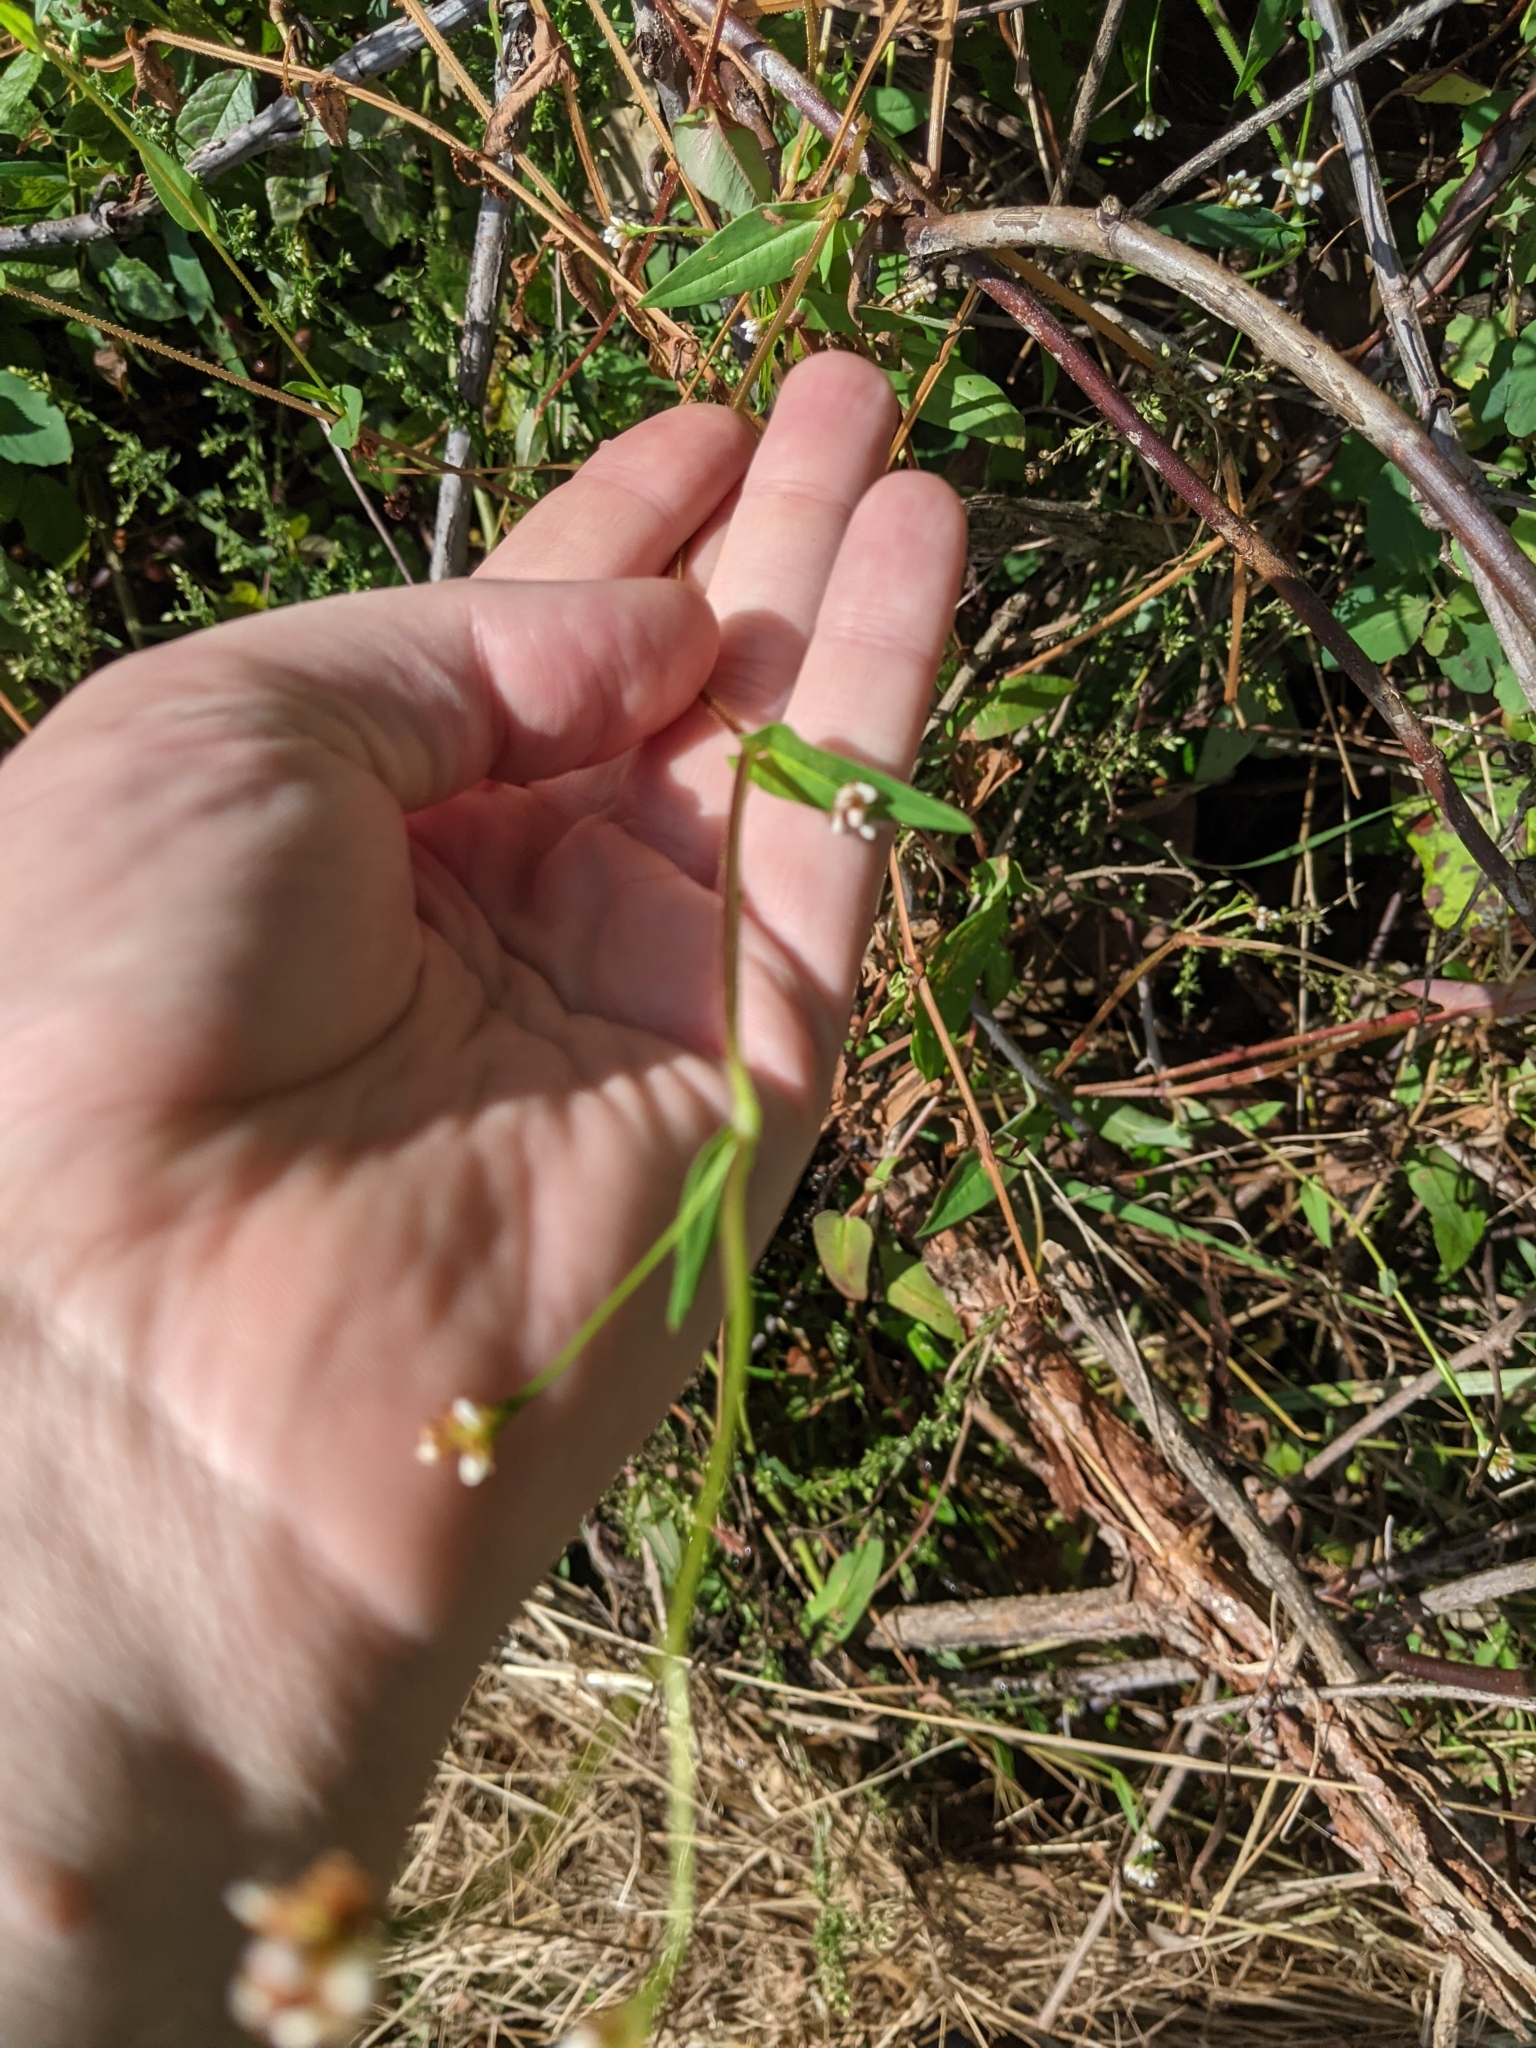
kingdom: Plantae
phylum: Tracheophyta
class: Magnoliopsida
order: Caryophyllales
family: Polygonaceae
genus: Persicaria
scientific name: Persicaria sagittata
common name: American tearthumb
